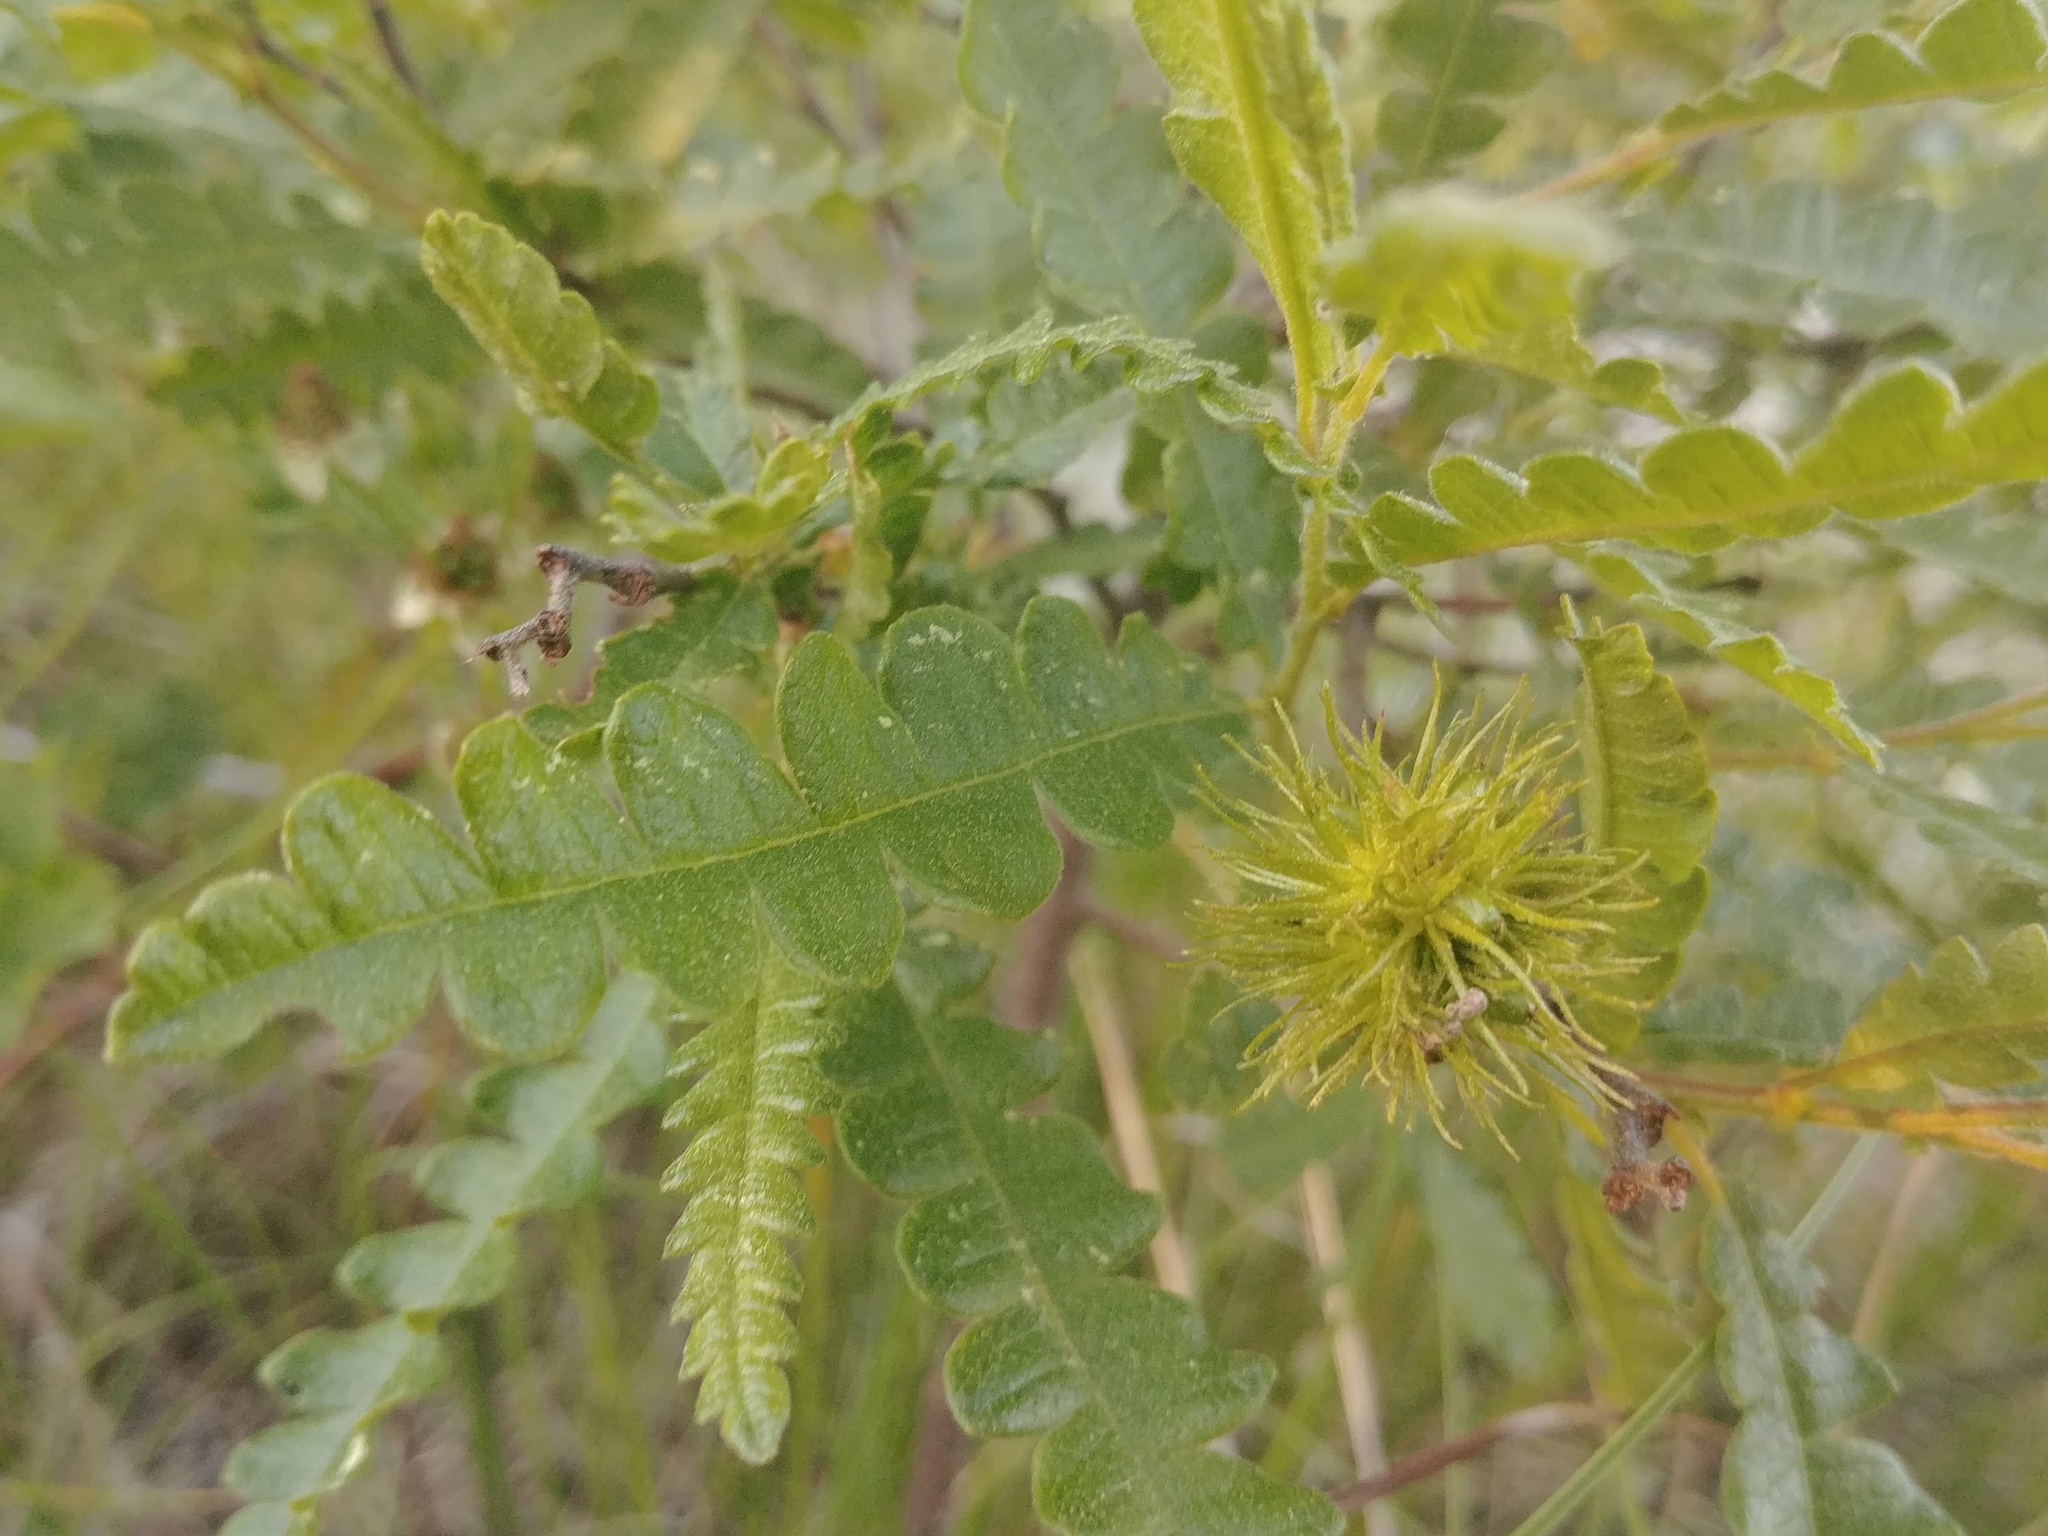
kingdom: Plantae
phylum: Tracheophyta
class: Magnoliopsida
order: Fagales
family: Myricaceae
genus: Comptonia
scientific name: Comptonia peregrina
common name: Sweet-fern
